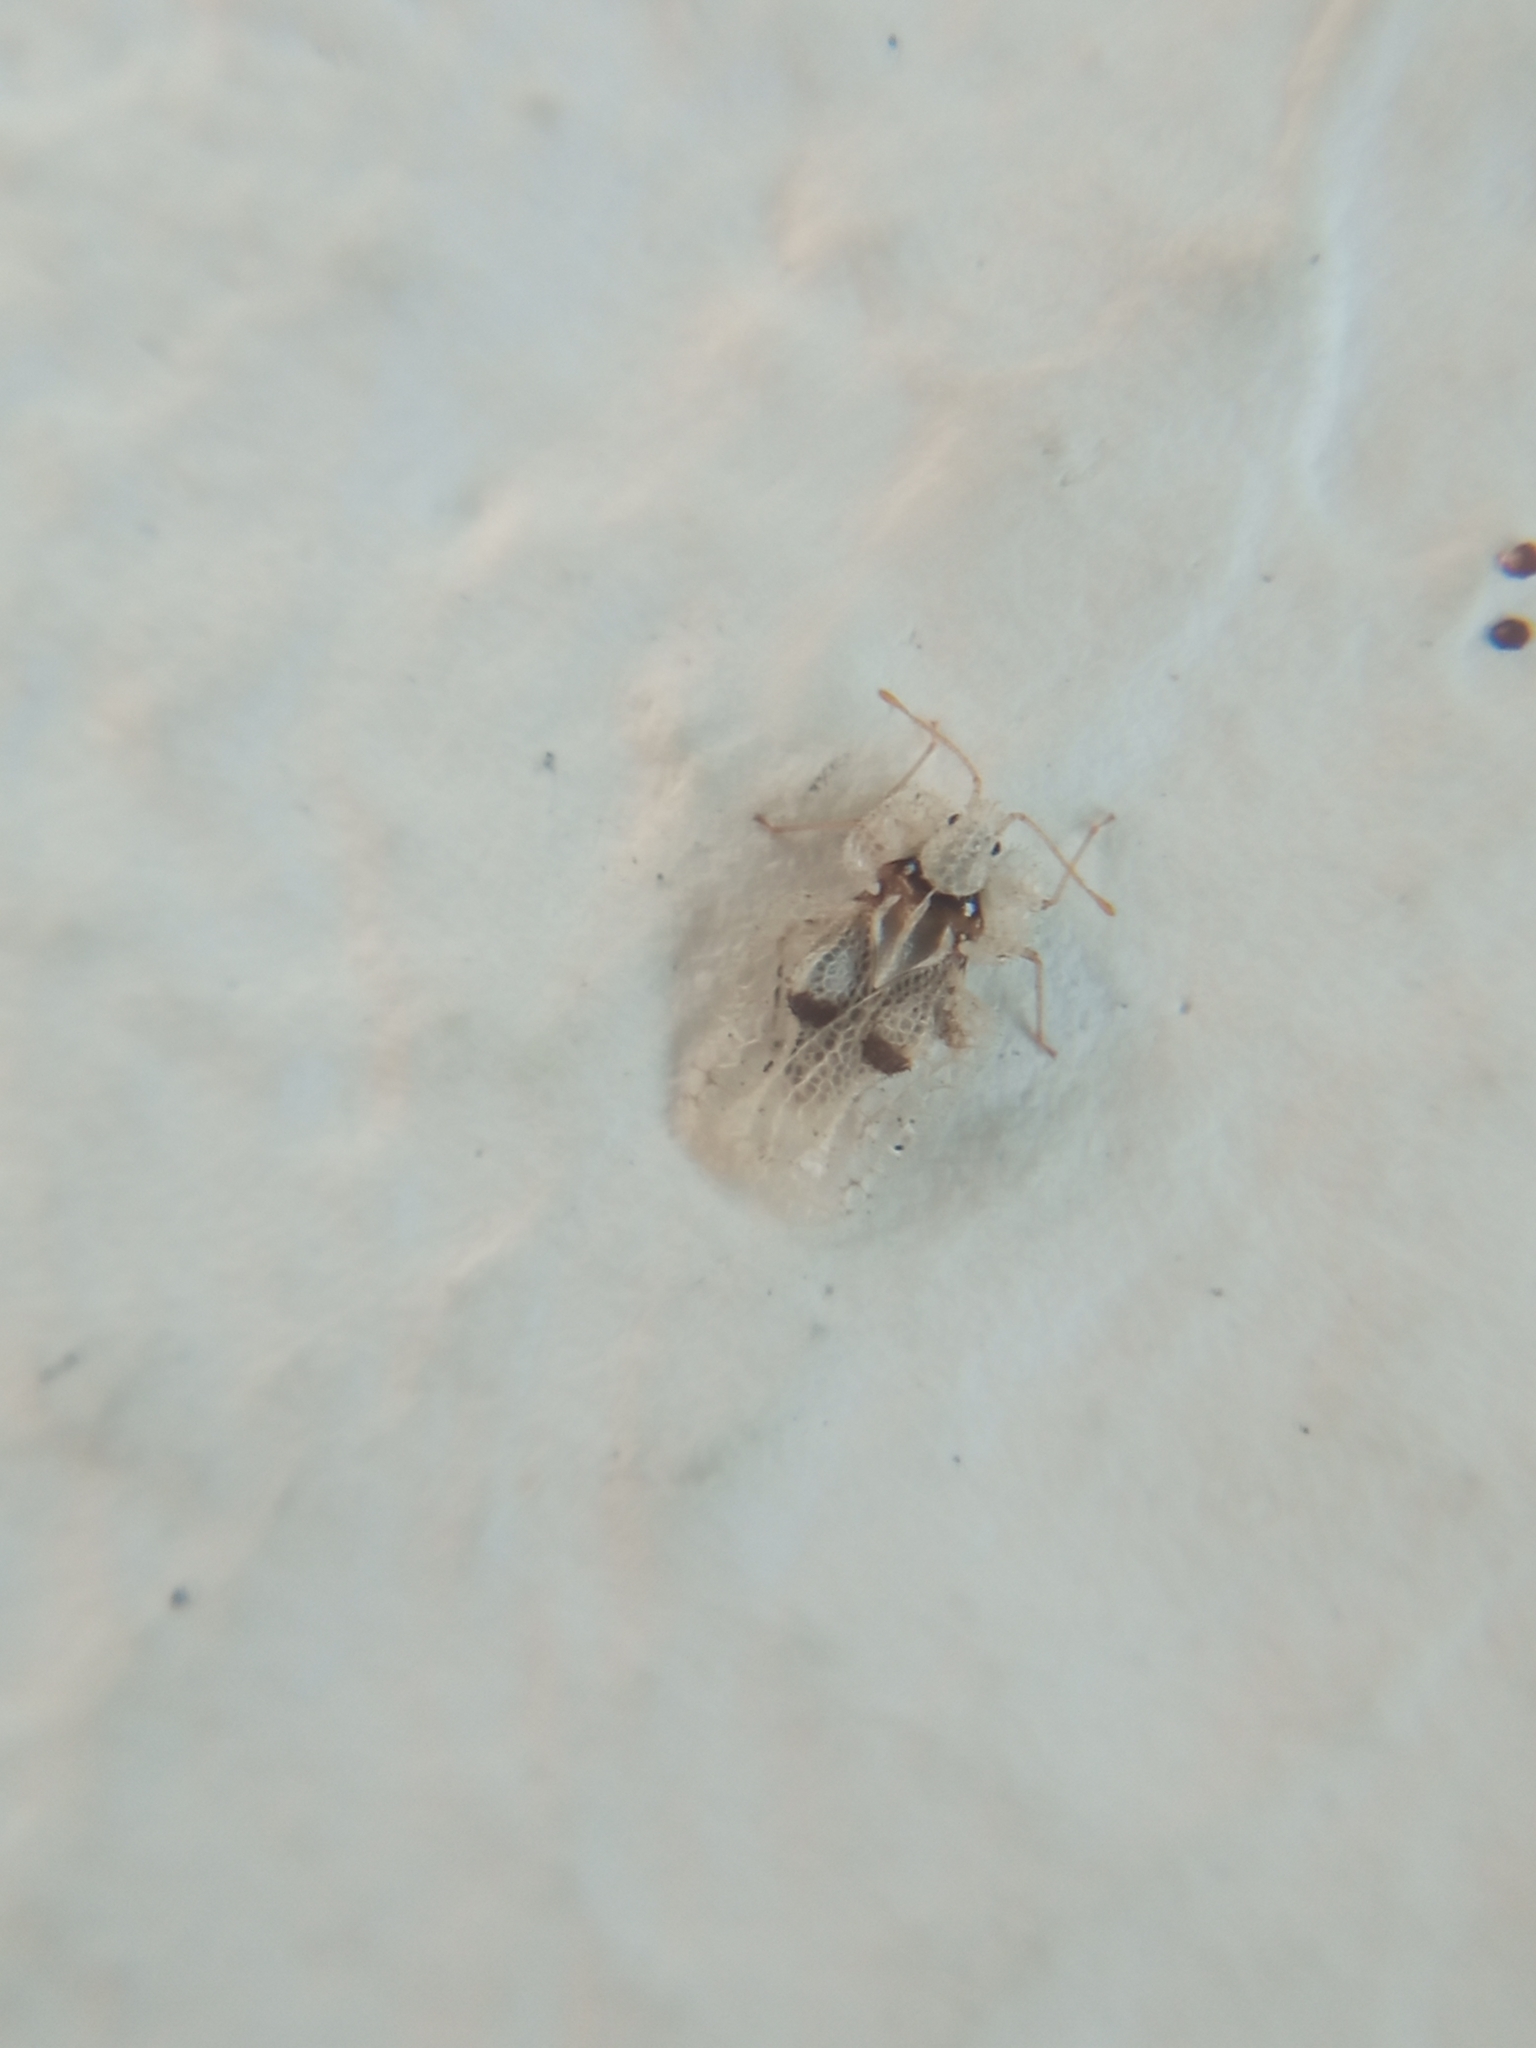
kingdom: Animalia
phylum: Arthropoda
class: Insecta
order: Hemiptera
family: Tingidae
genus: Corythucha
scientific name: Corythucha ciliata
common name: Sycamore lace bug
